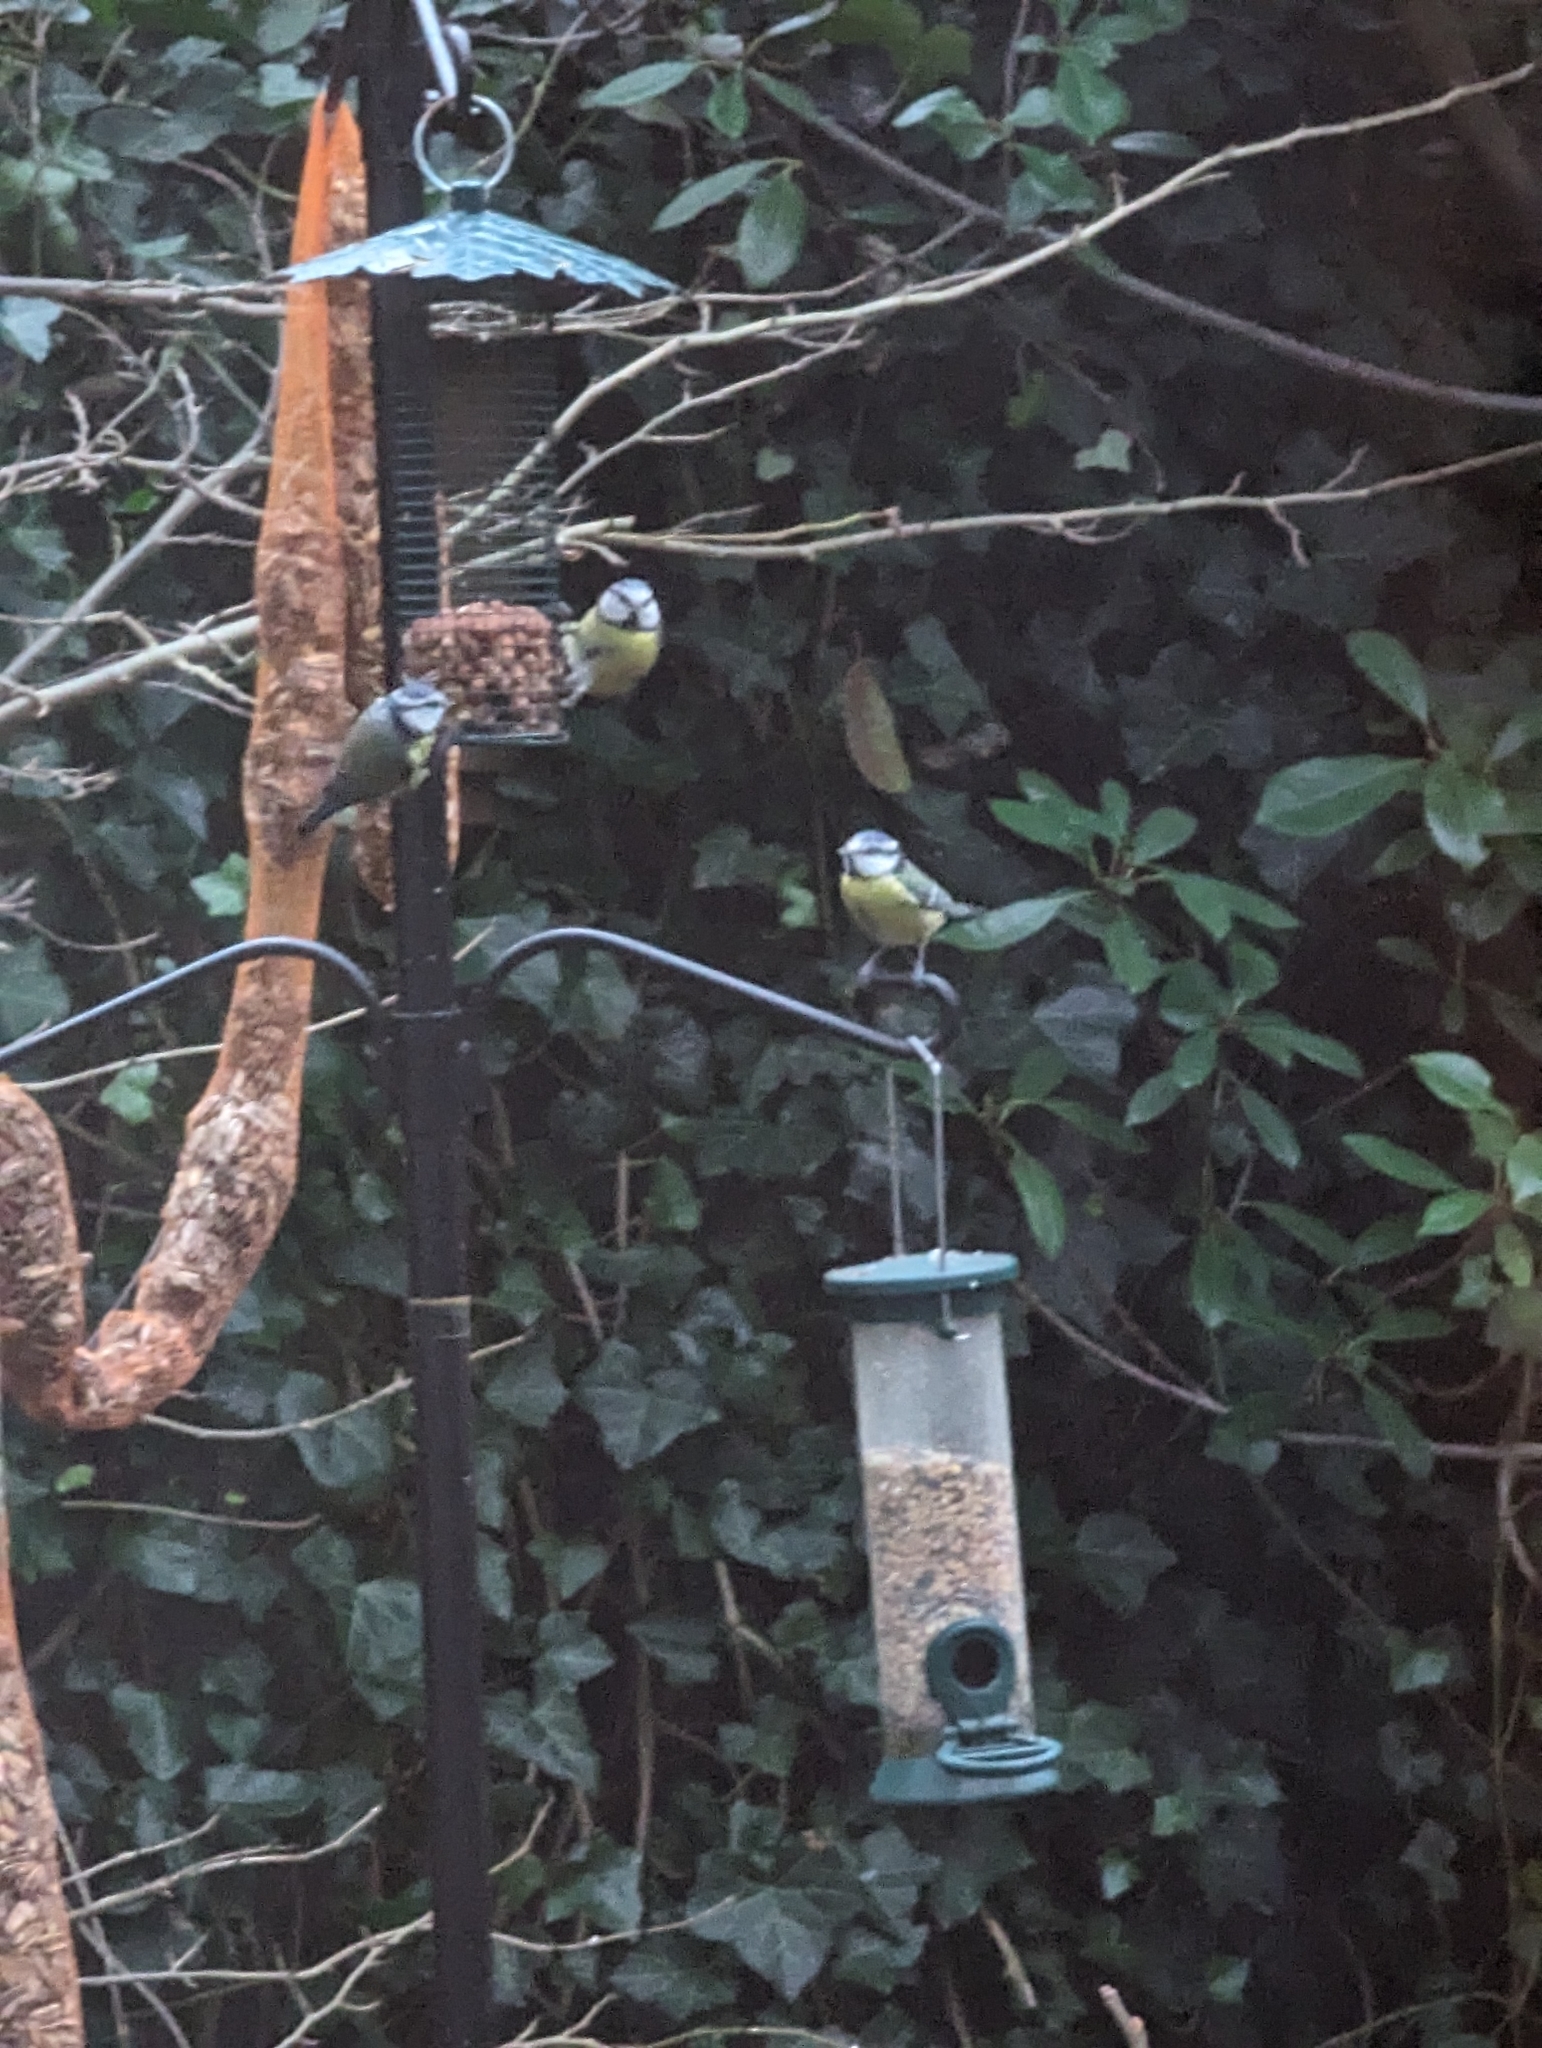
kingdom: Animalia
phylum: Chordata
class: Aves
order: Passeriformes
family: Paridae
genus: Cyanistes
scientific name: Cyanistes caeruleus
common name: Eurasian blue tit
